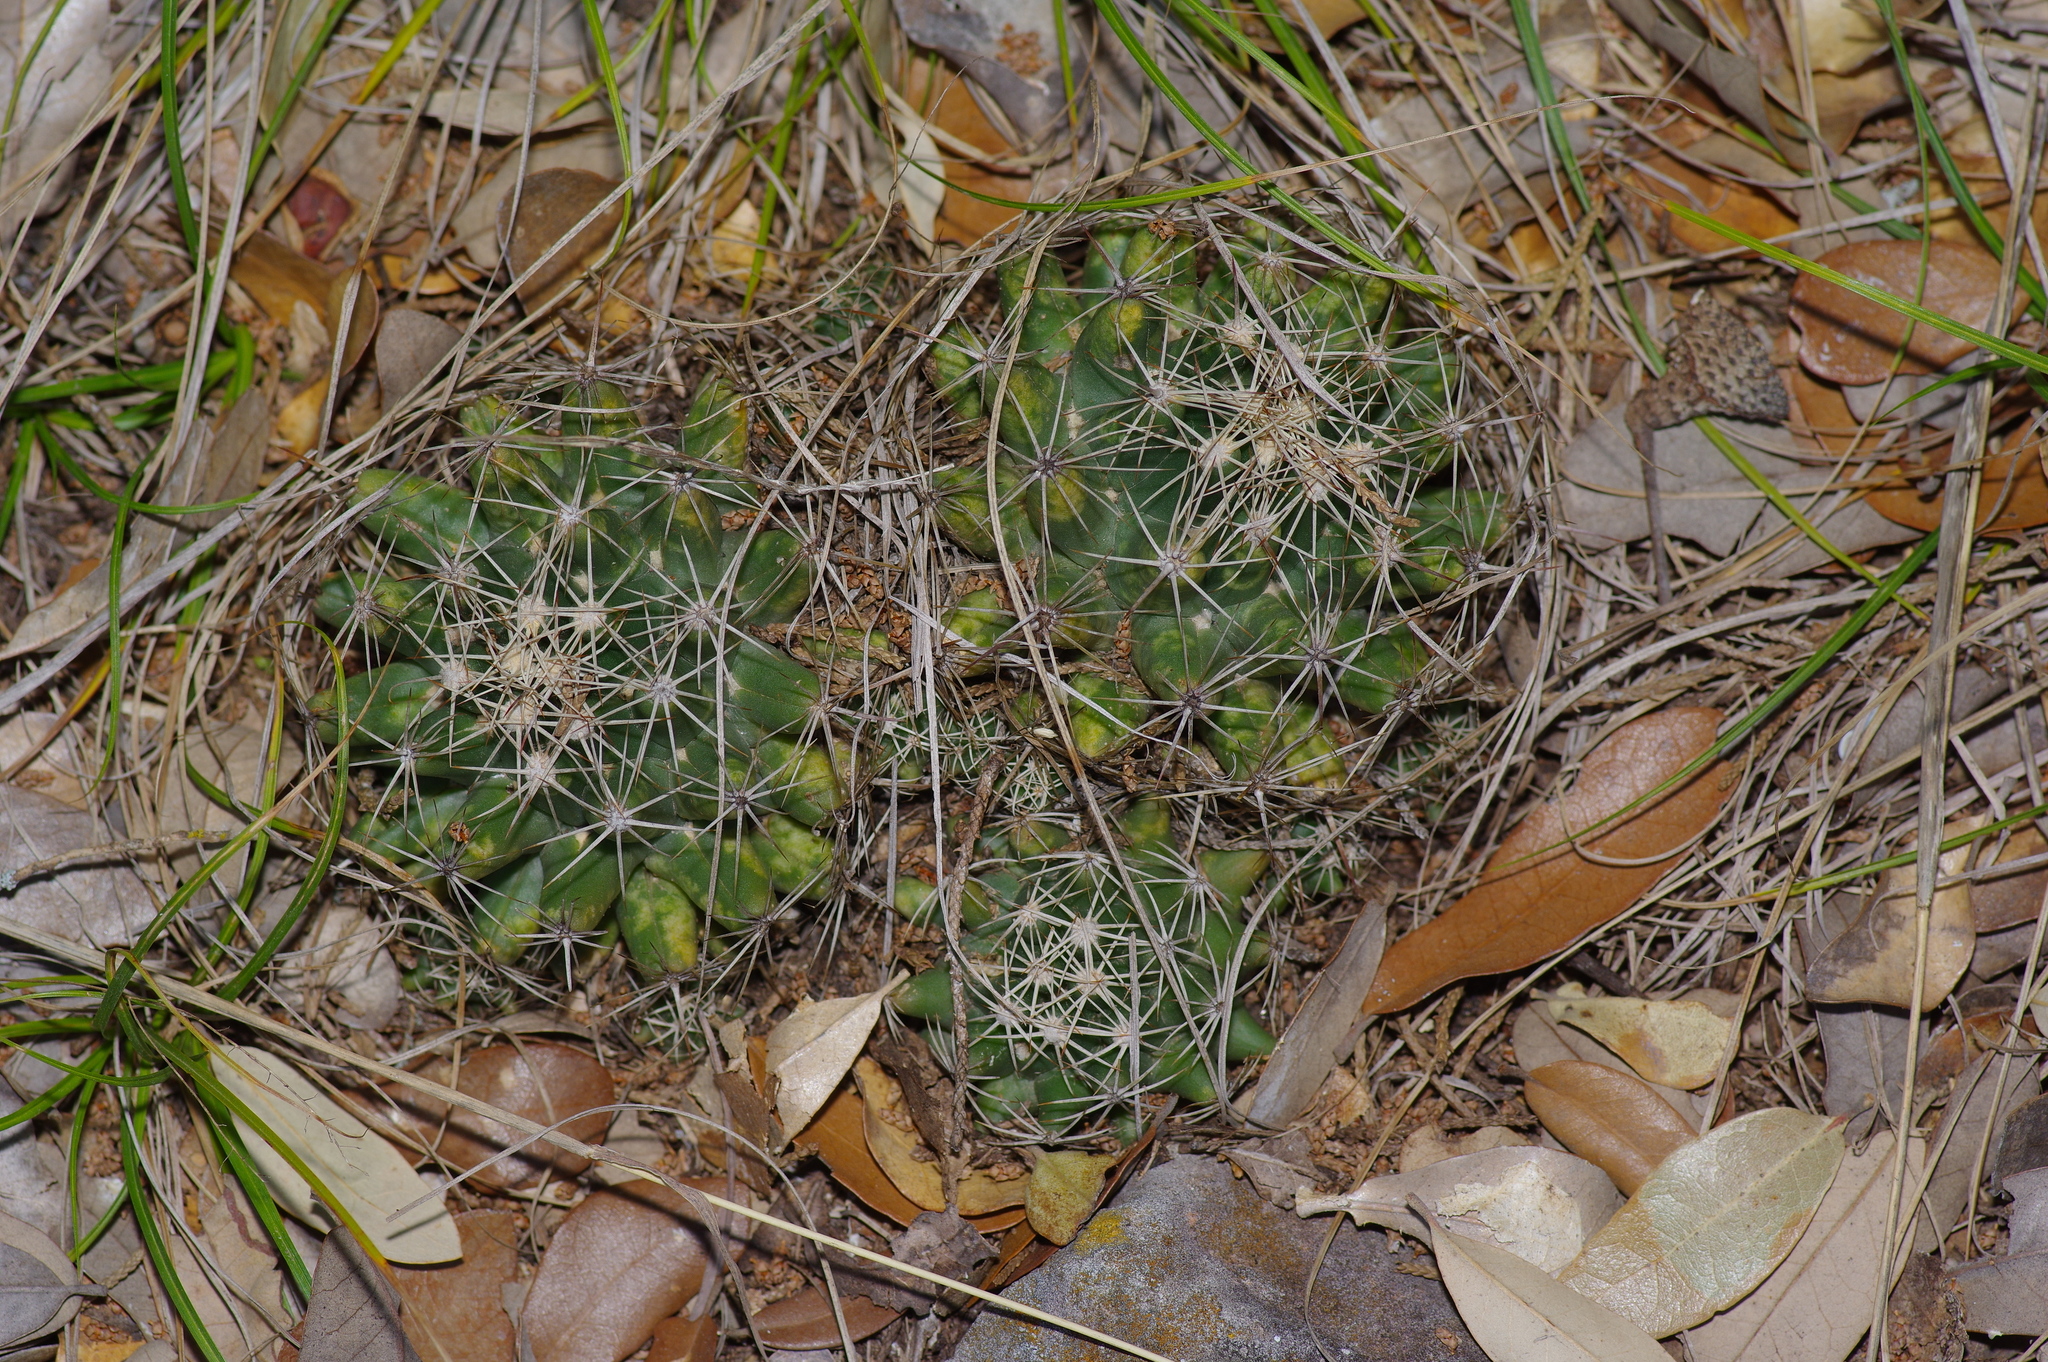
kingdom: Plantae
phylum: Tracheophyta
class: Magnoliopsida
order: Caryophyllales
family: Cactaceae
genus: Coryphantha
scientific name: Coryphantha sulcata
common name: Finger cactus
